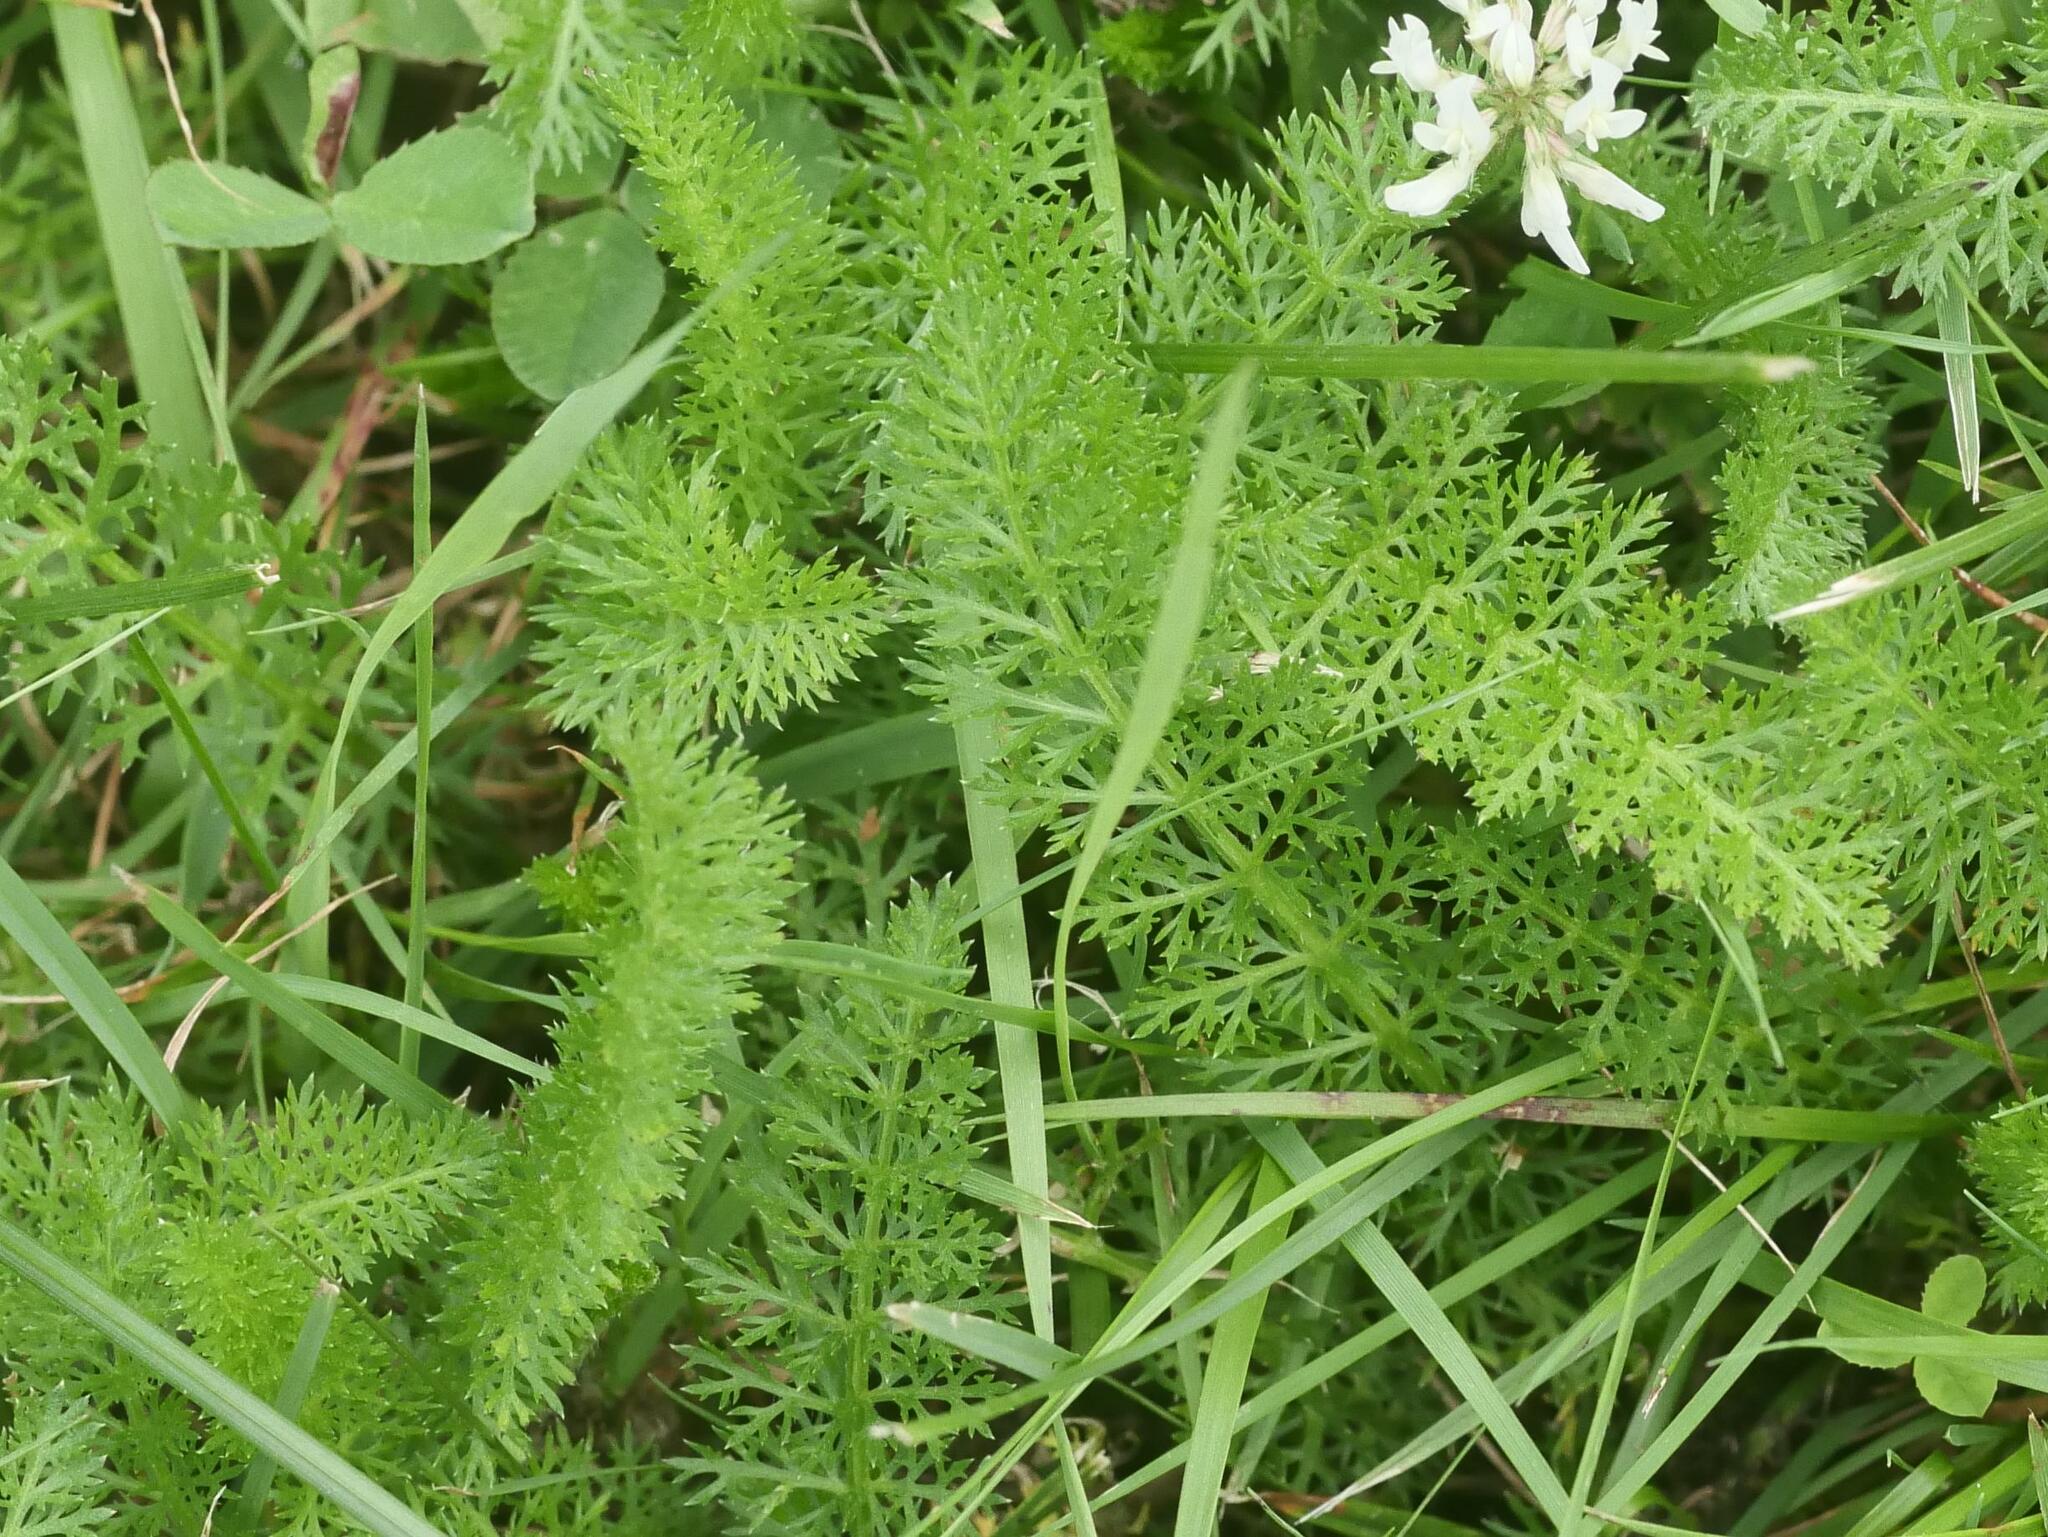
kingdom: Plantae
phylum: Tracheophyta
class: Magnoliopsida
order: Asterales
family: Asteraceae
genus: Achillea
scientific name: Achillea millefolium
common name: Yarrow
